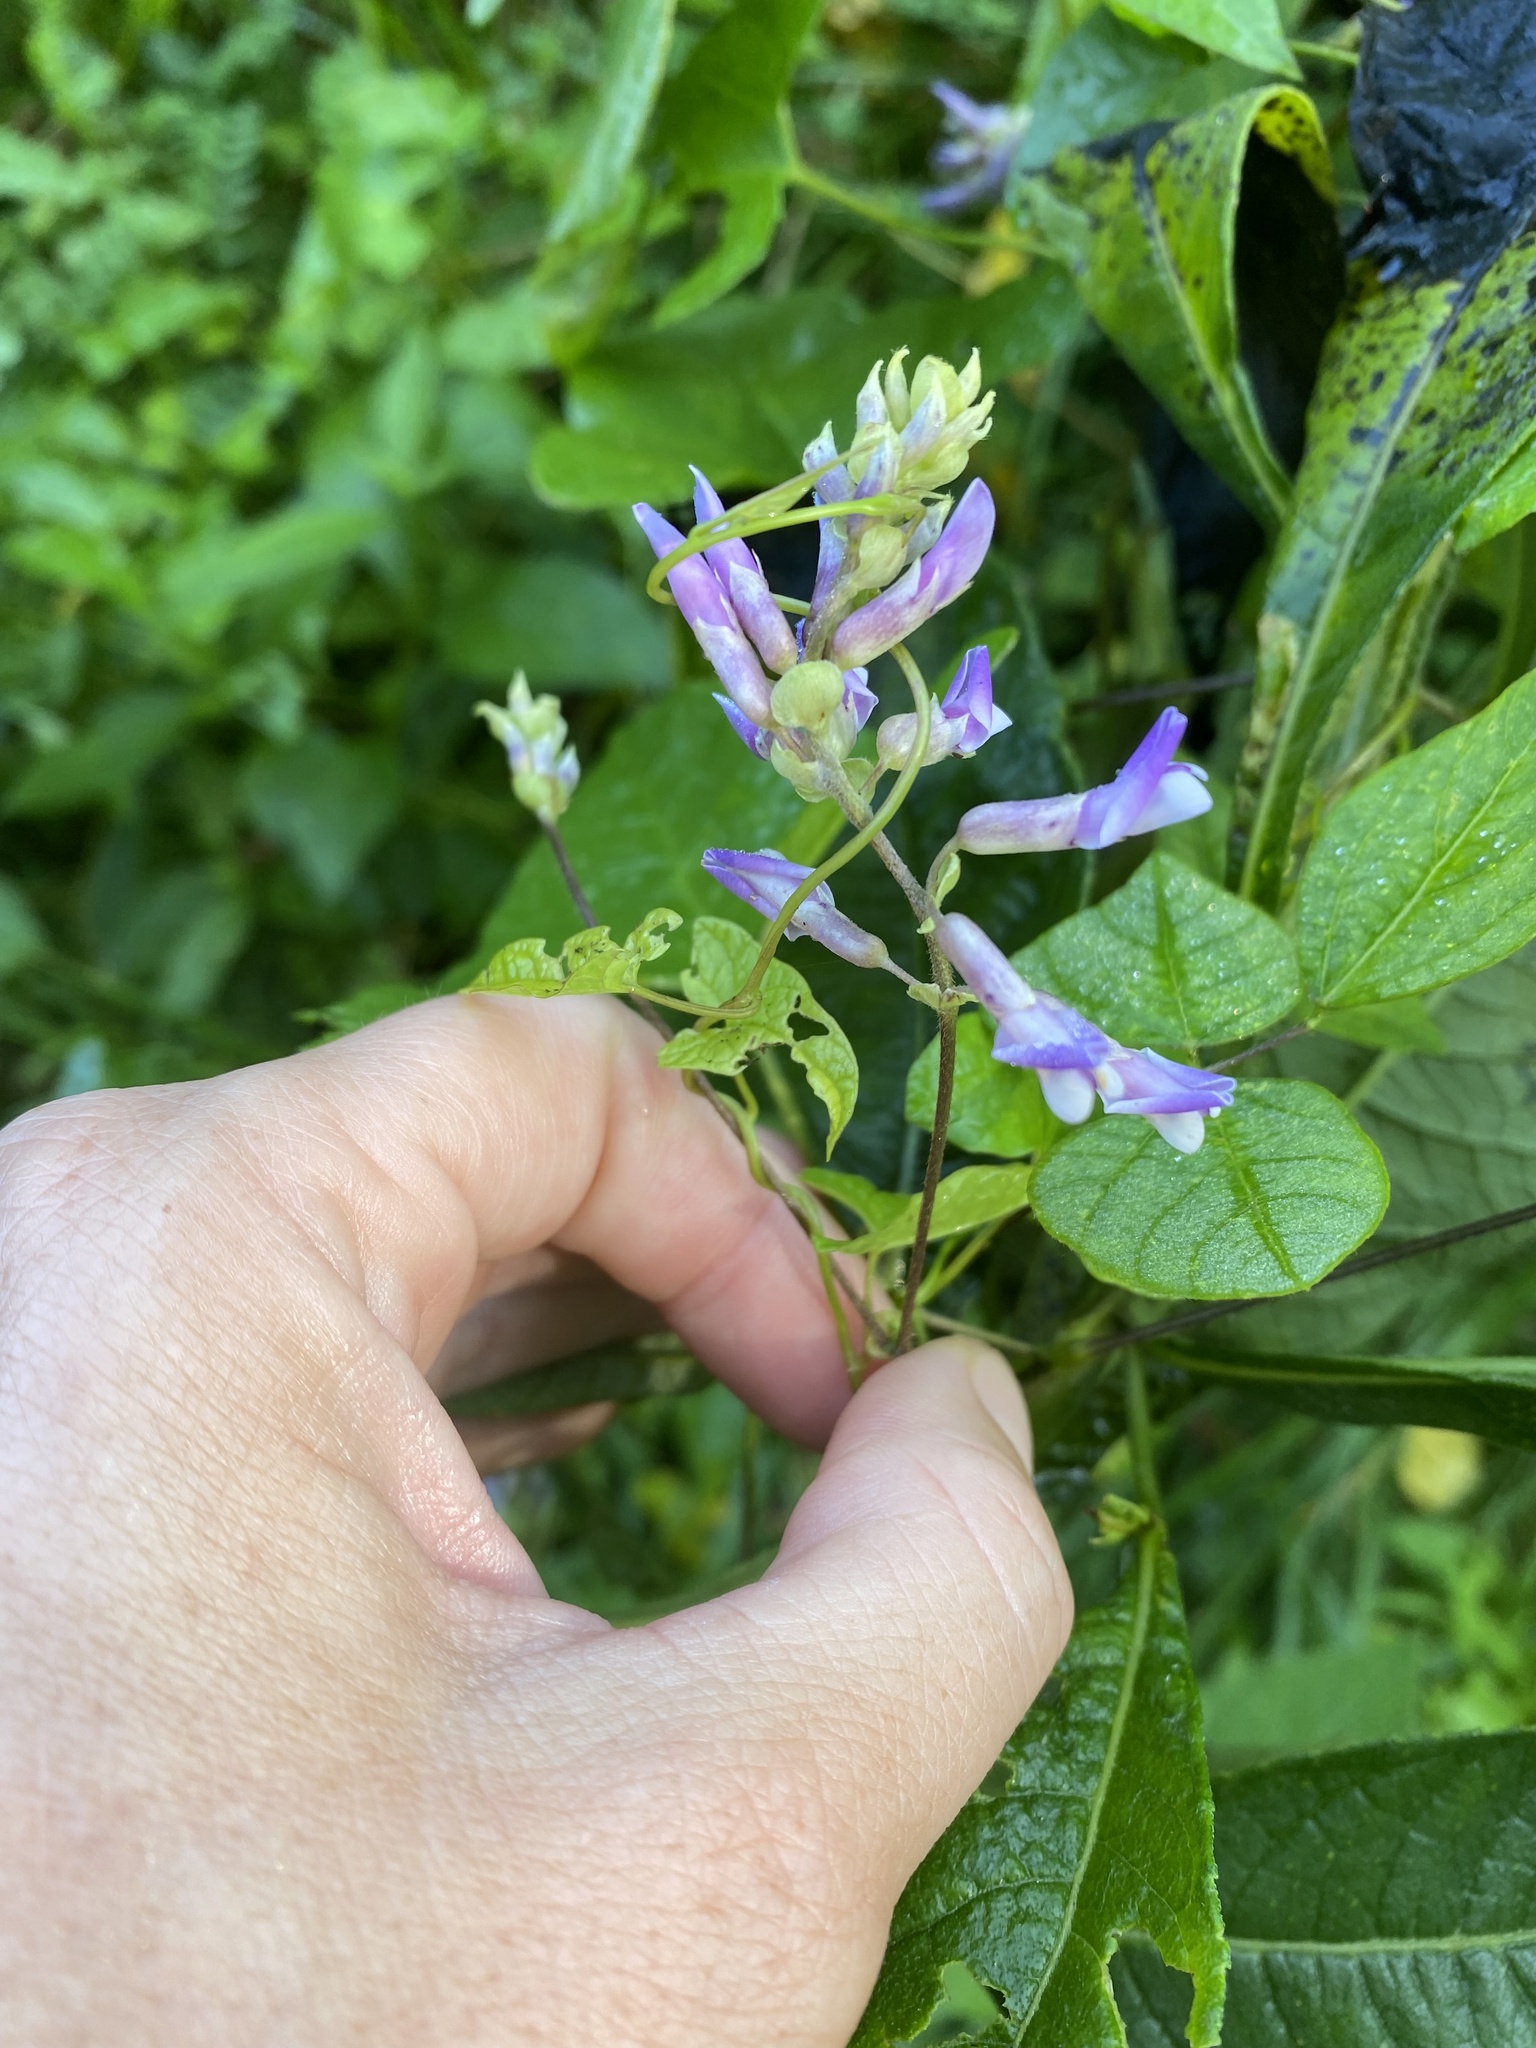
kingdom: Plantae
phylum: Tracheophyta
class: Magnoliopsida
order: Fabales
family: Fabaceae
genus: Amphicarpaea
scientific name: Amphicarpaea bracteata
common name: American hog peanut
